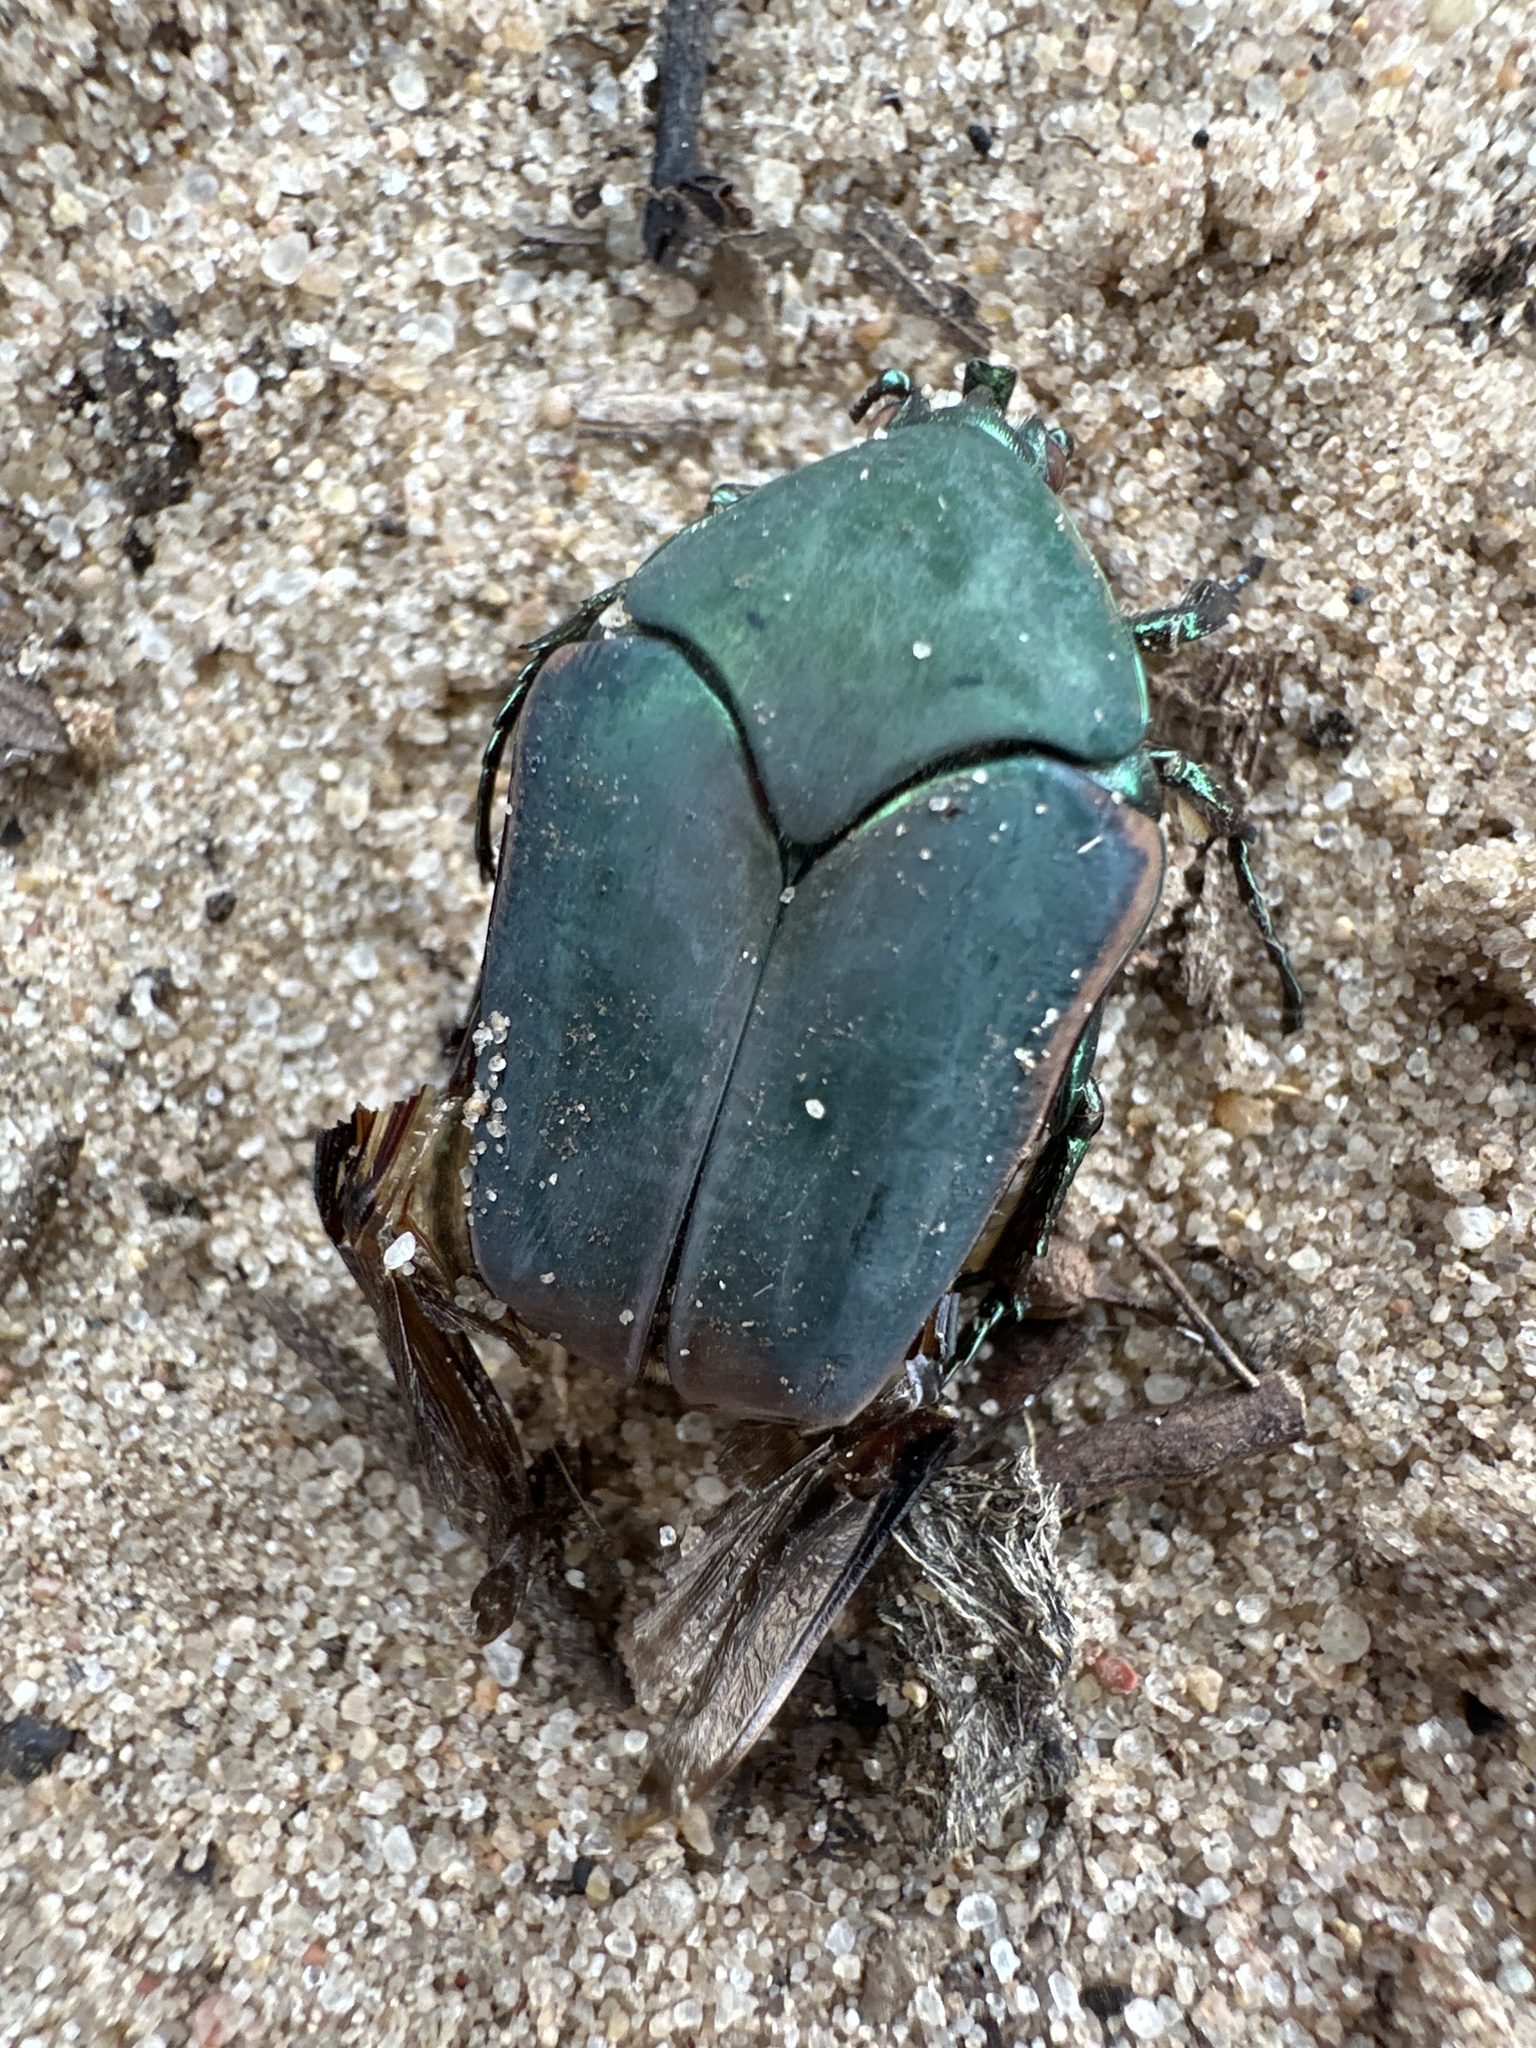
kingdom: Animalia
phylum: Arthropoda
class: Insecta
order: Coleoptera
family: Scarabaeidae
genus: Cotinis
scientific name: Cotinis nitida
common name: Common green june beetle
